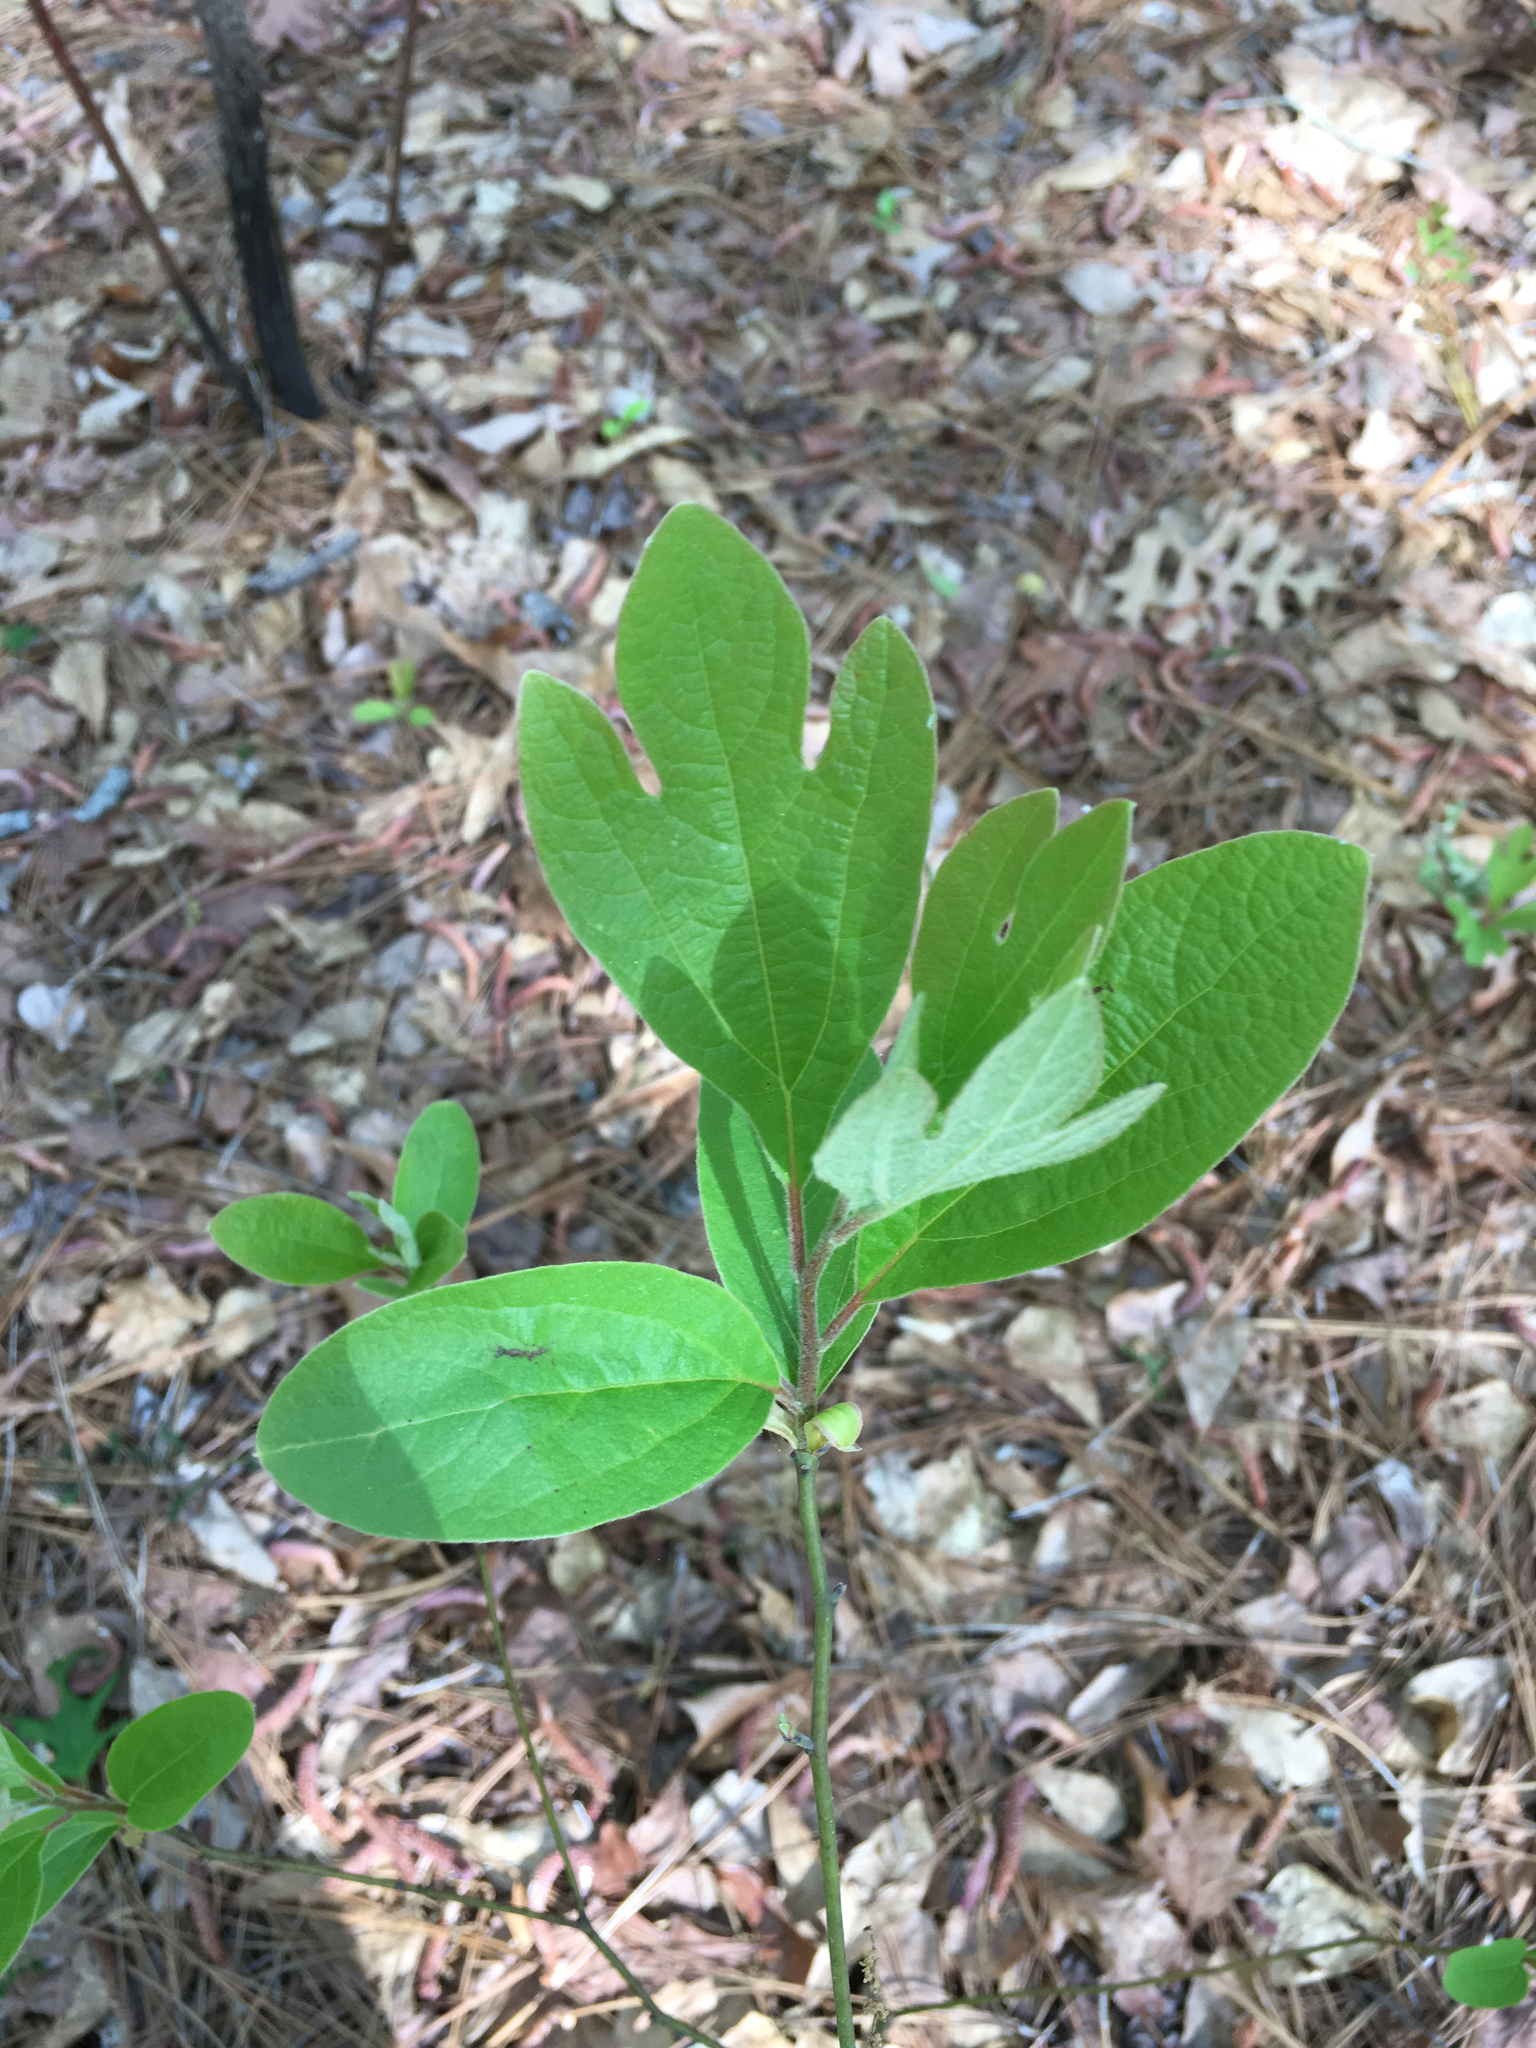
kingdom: Plantae
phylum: Tracheophyta
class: Magnoliopsida
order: Laurales
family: Lauraceae
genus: Sassafras
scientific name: Sassafras albidum
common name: Sassafras
